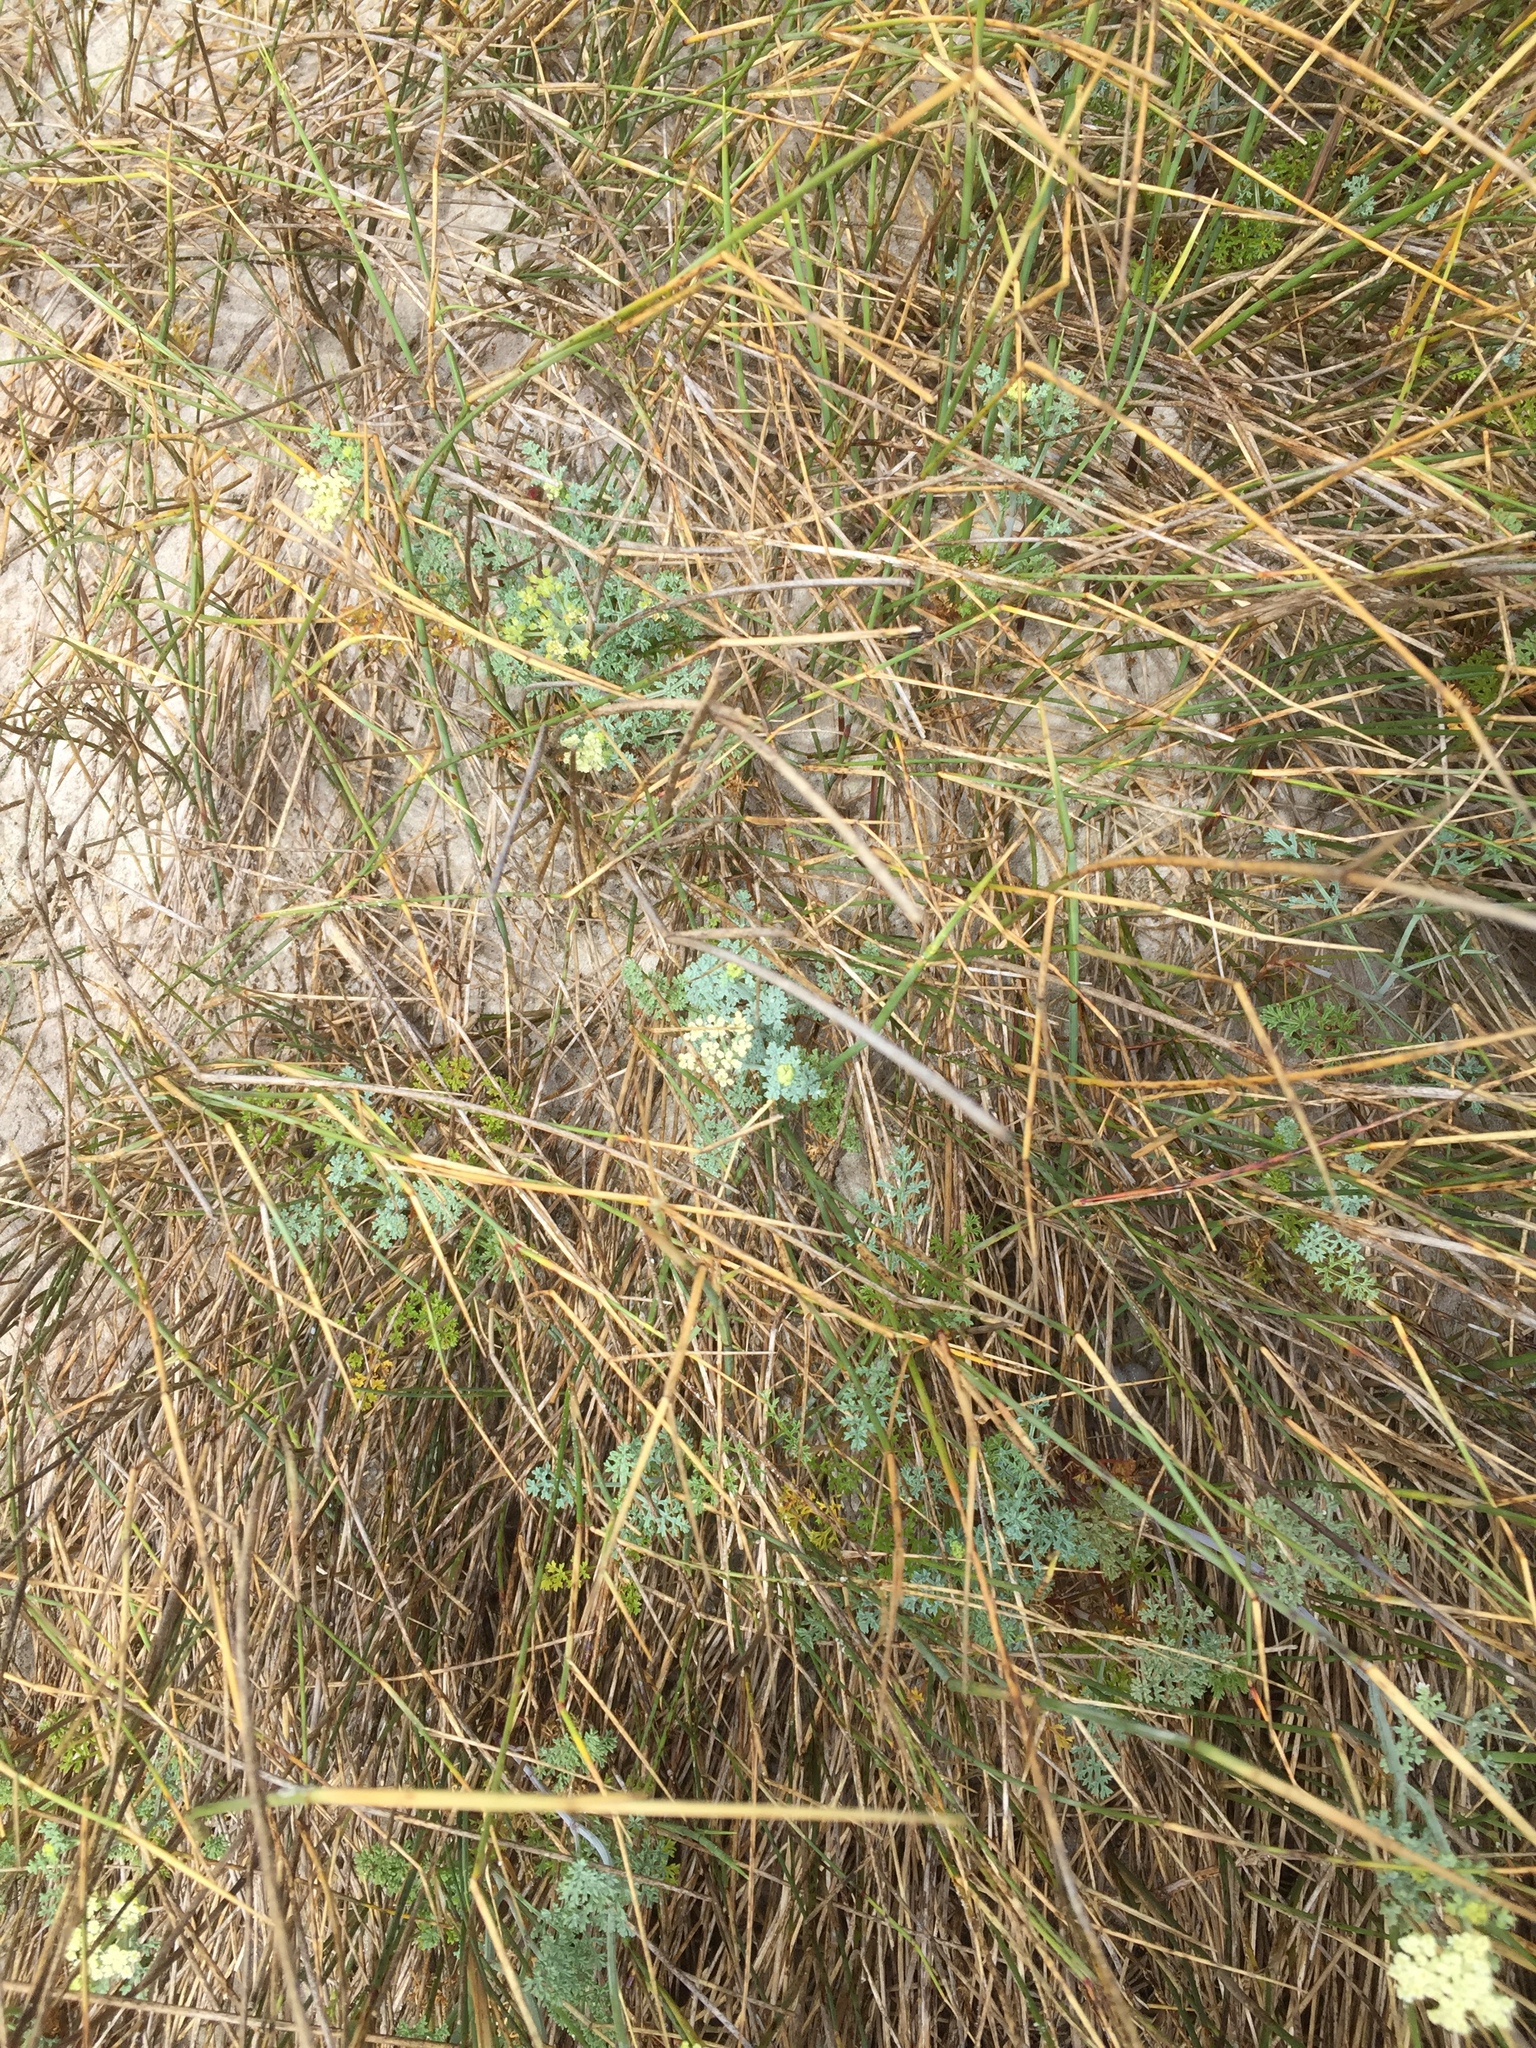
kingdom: Plantae
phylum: Tracheophyta
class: Magnoliopsida
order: Apiales
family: Apiaceae
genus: Dasispermum
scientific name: Dasispermum suffruticosum
